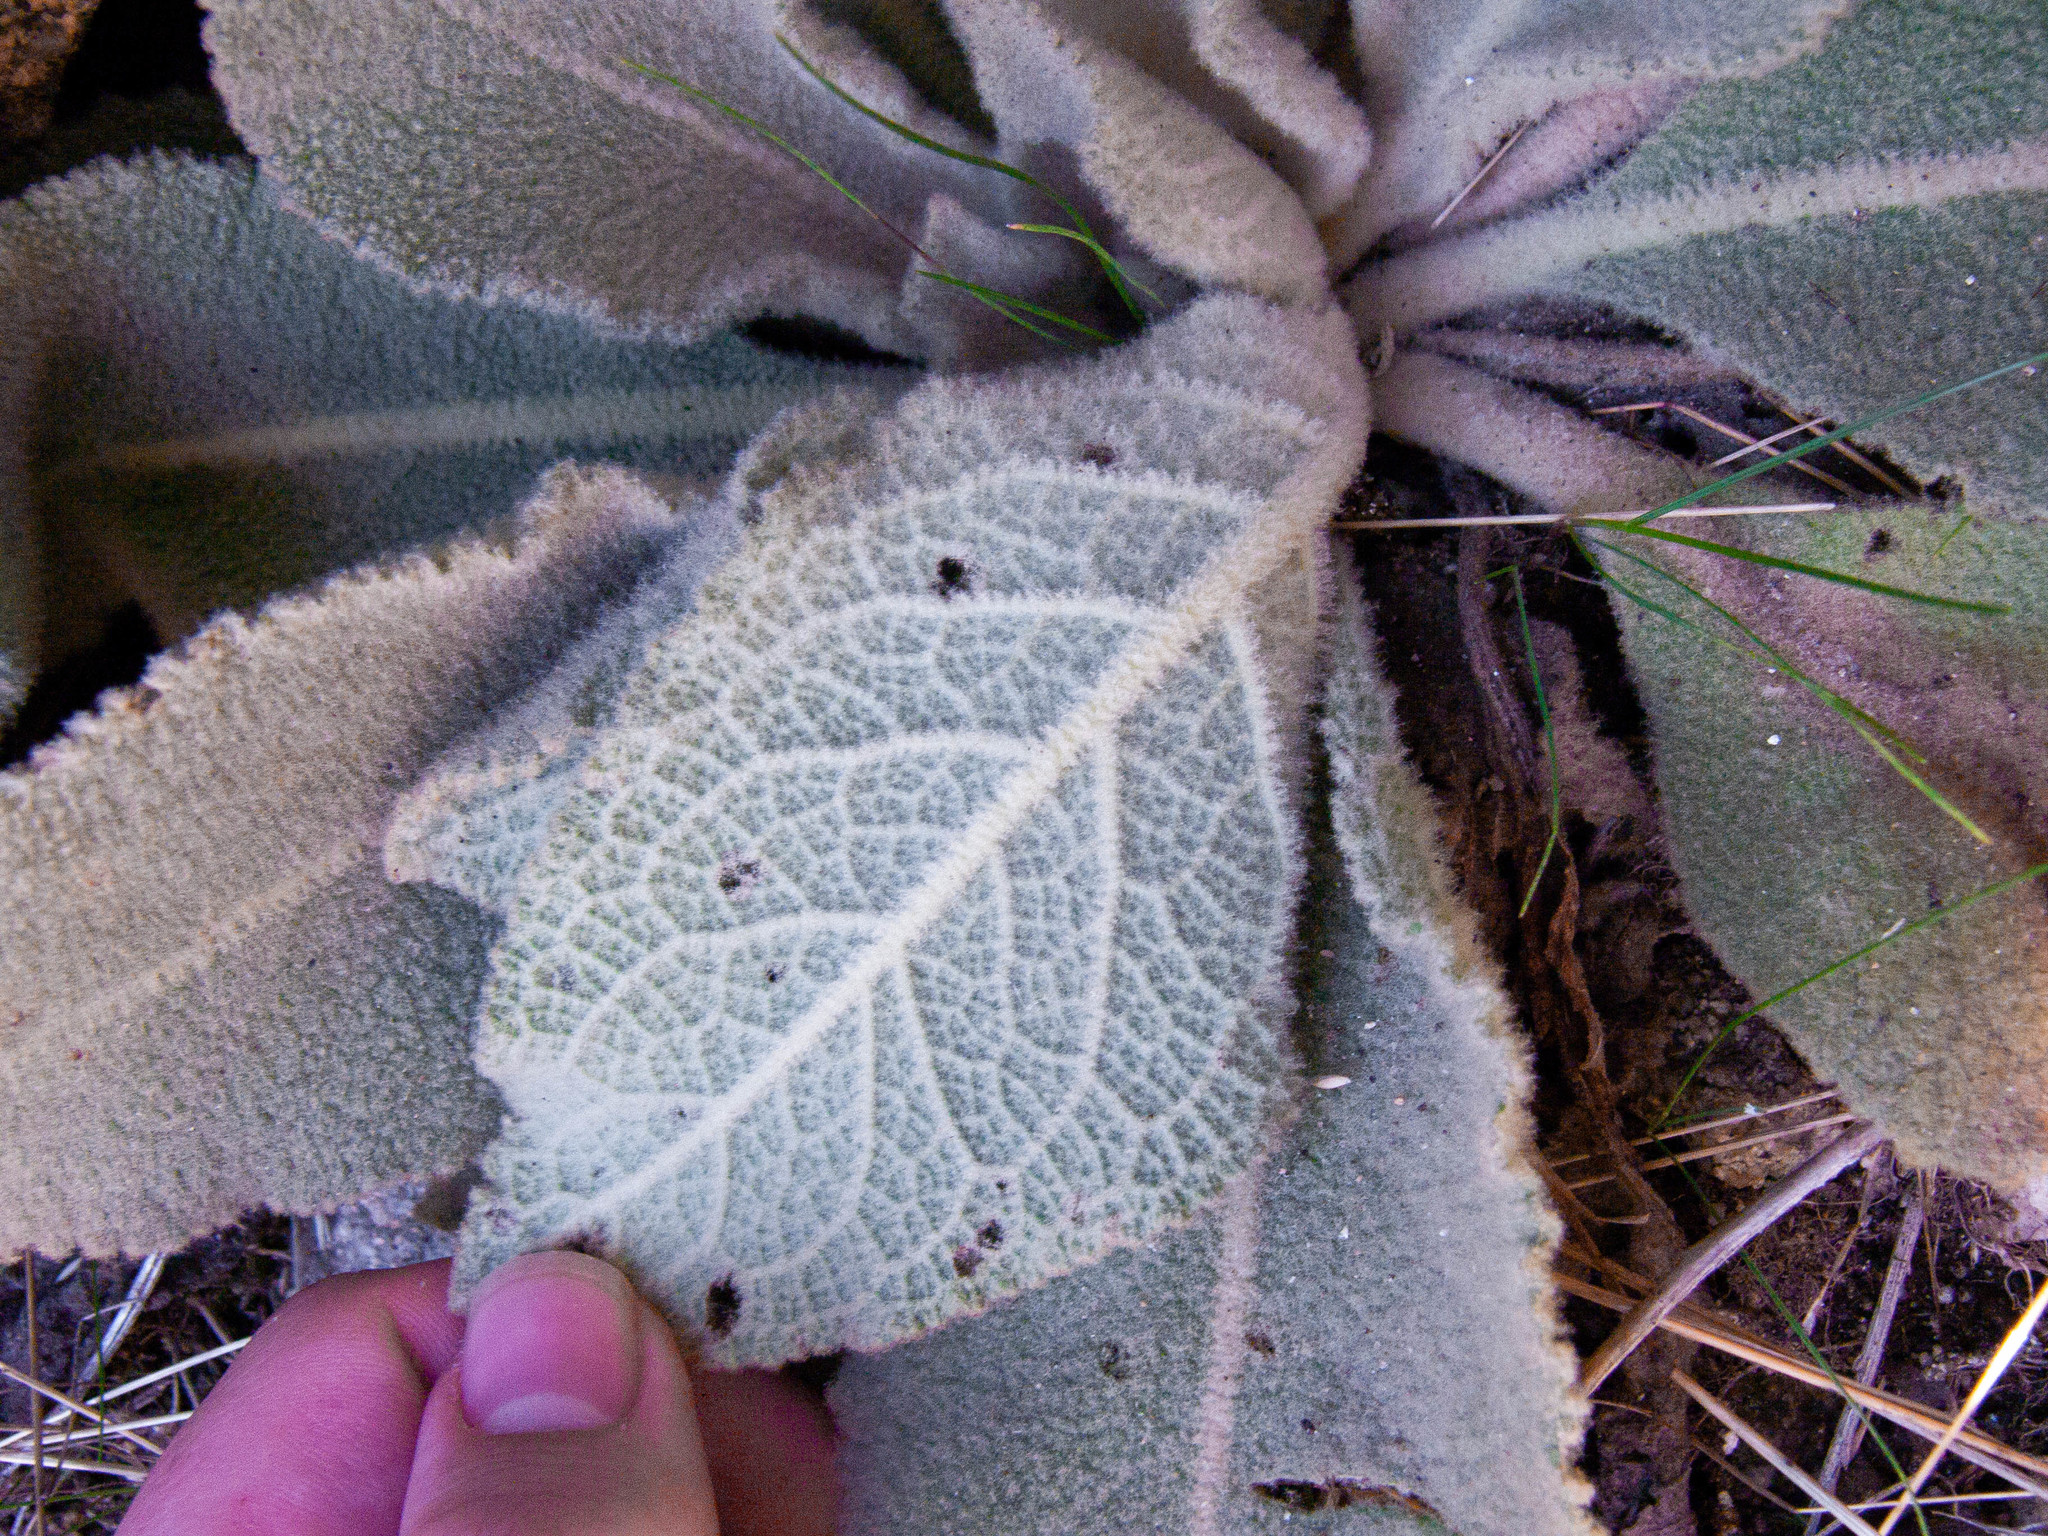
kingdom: Plantae
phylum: Tracheophyta
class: Magnoliopsida
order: Lamiales
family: Scrophulariaceae
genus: Verbascum
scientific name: Verbascum thapsus
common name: Common mullein
